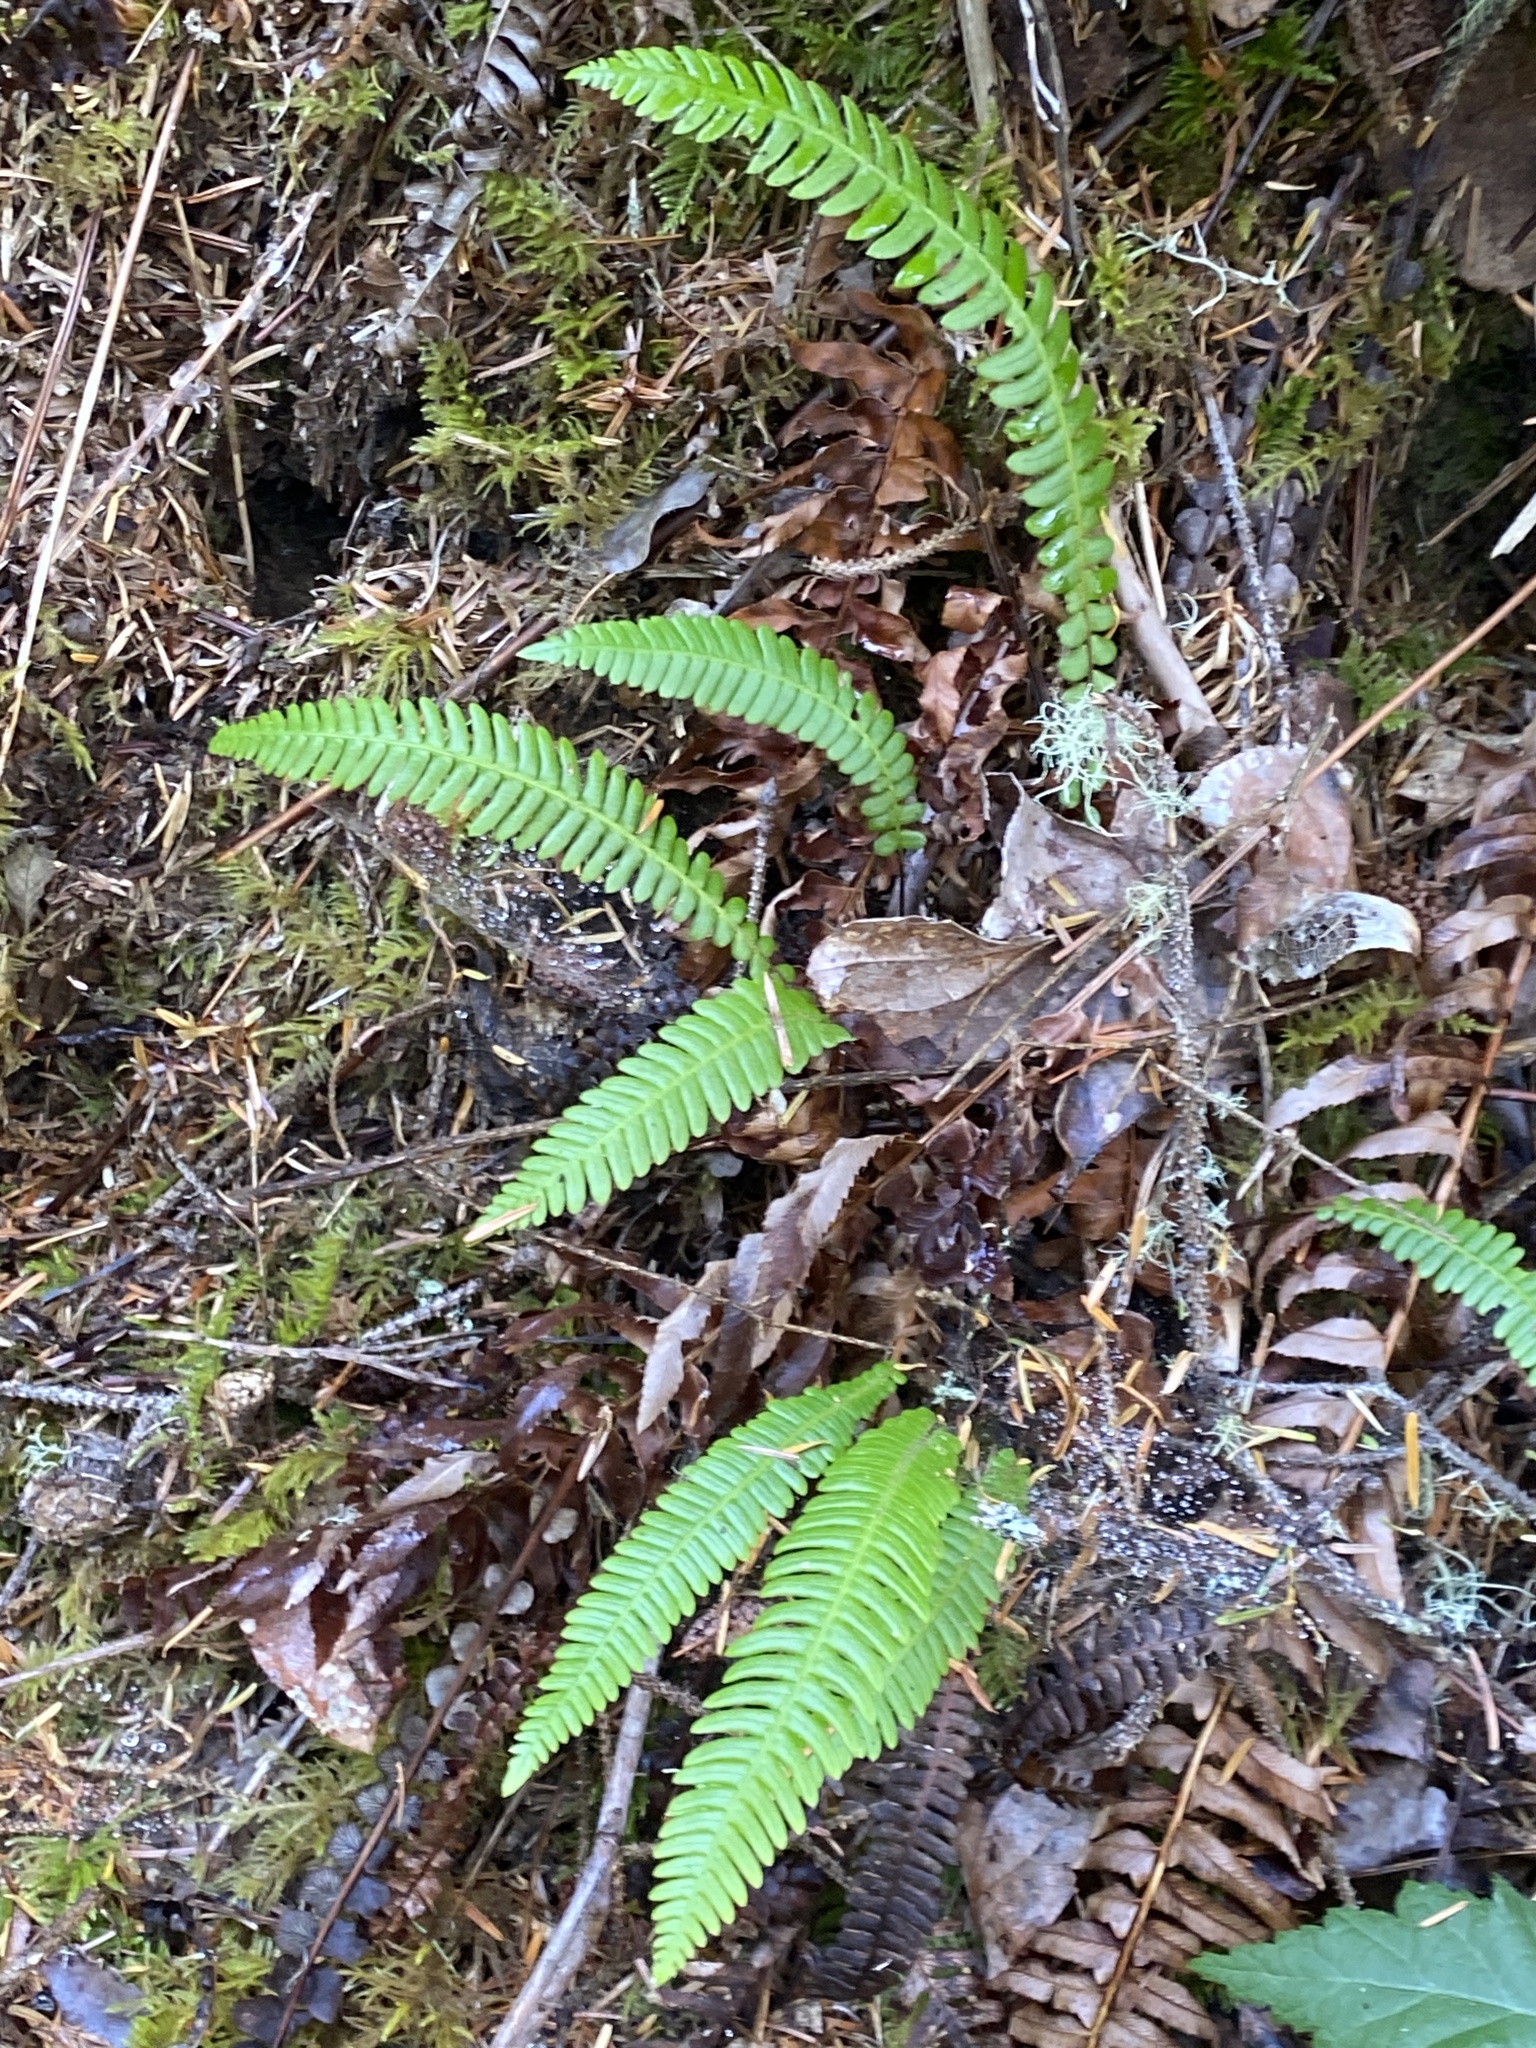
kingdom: Plantae
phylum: Tracheophyta
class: Polypodiopsida
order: Polypodiales
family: Blechnaceae
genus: Struthiopteris
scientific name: Struthiopteris spicant
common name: Deer fern
